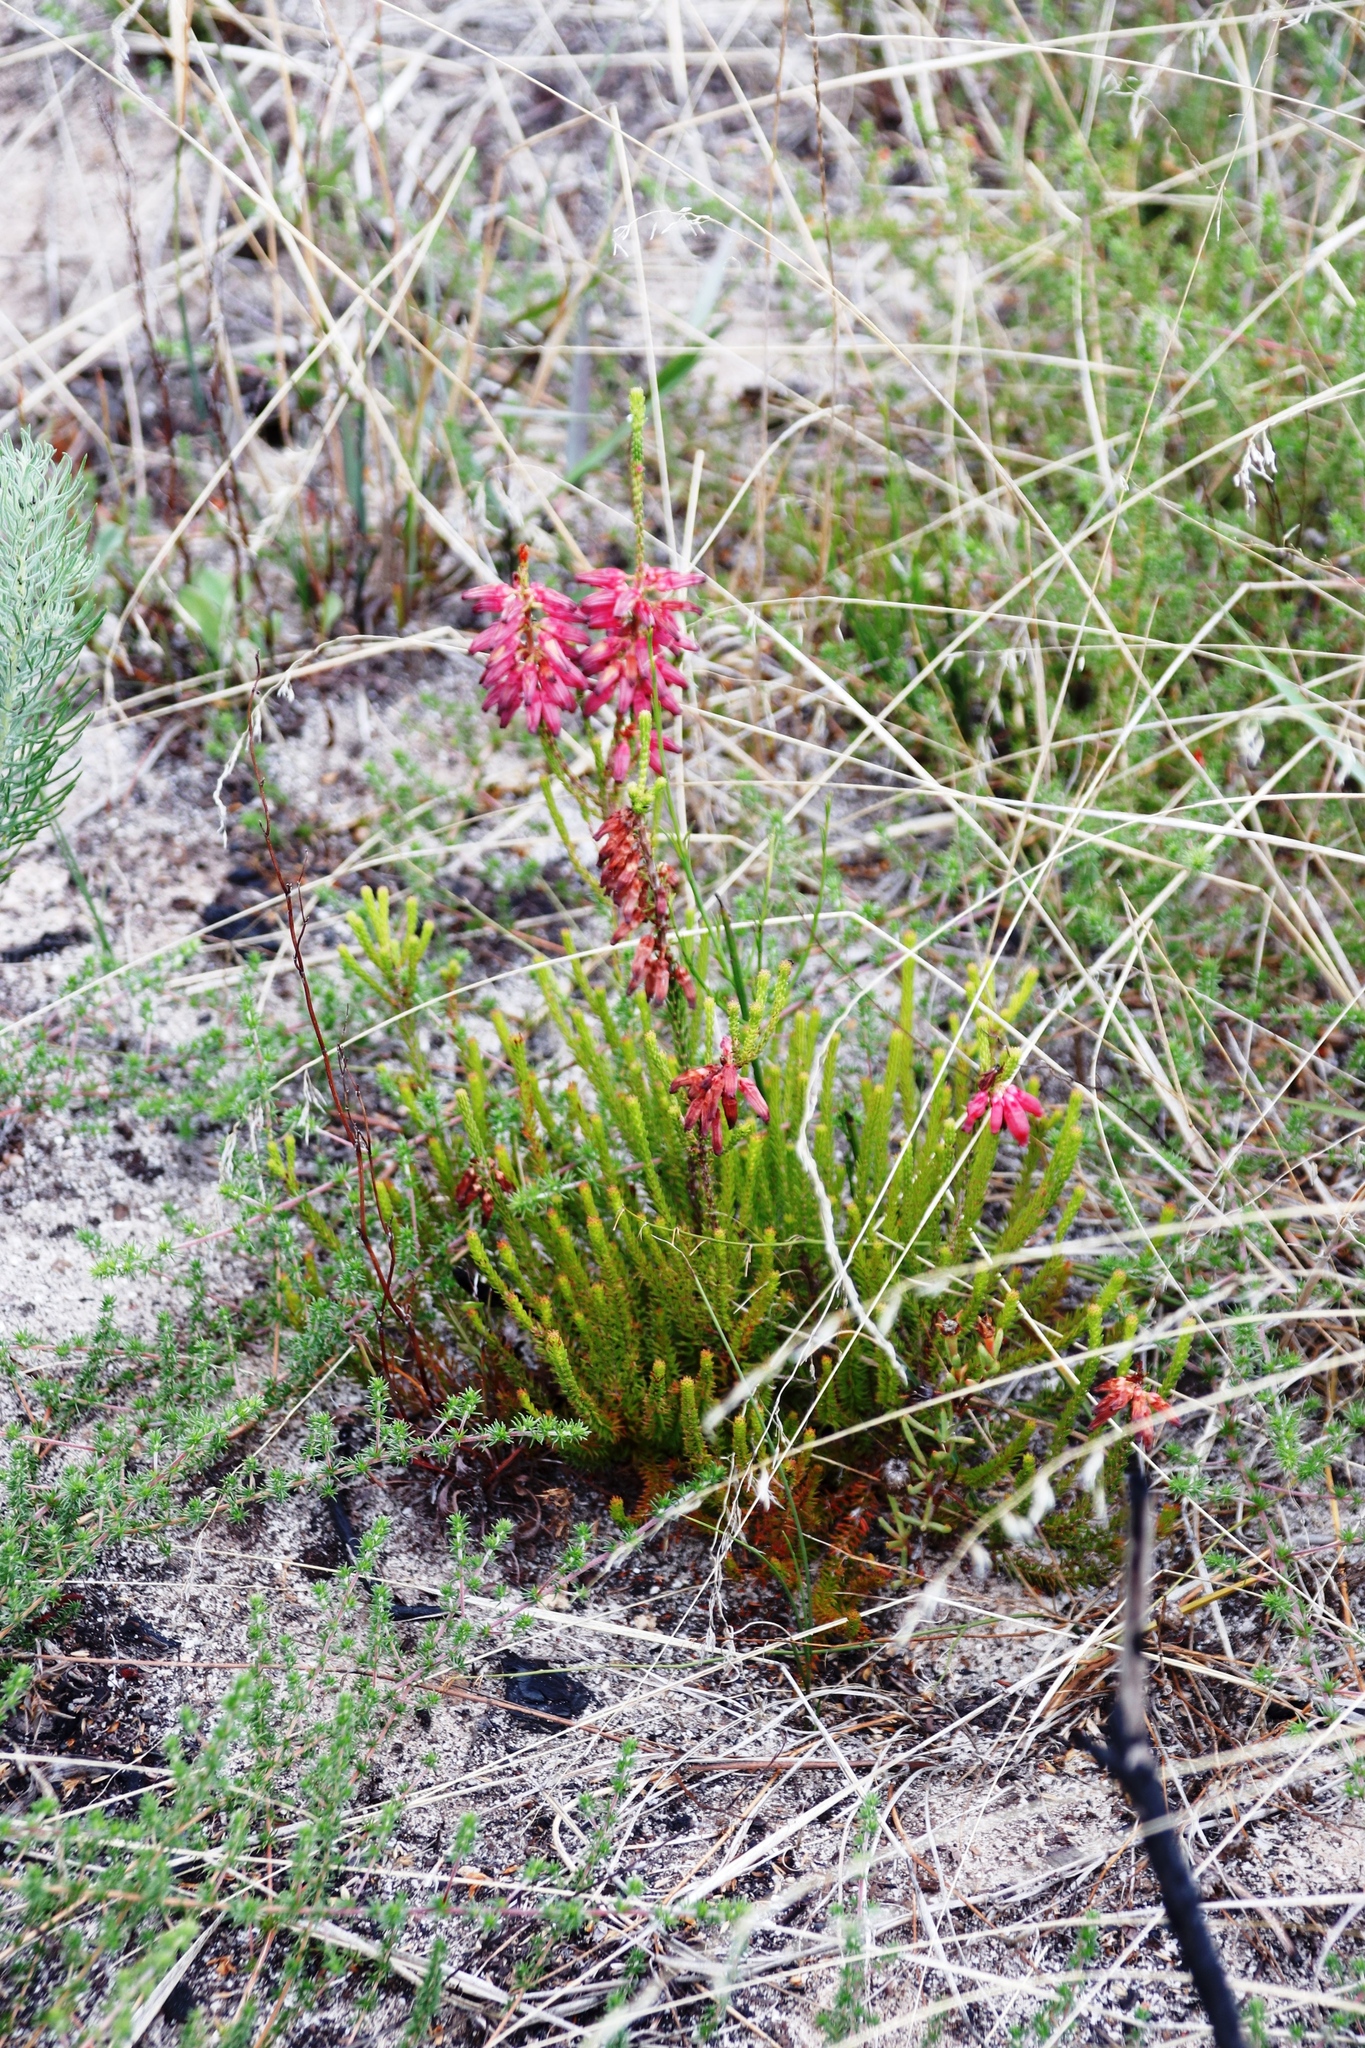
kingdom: Plantae
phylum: Tracheophyta
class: Magnoliopsida
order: Ericales
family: Ericaceae
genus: Erica
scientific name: Erica mammosa
